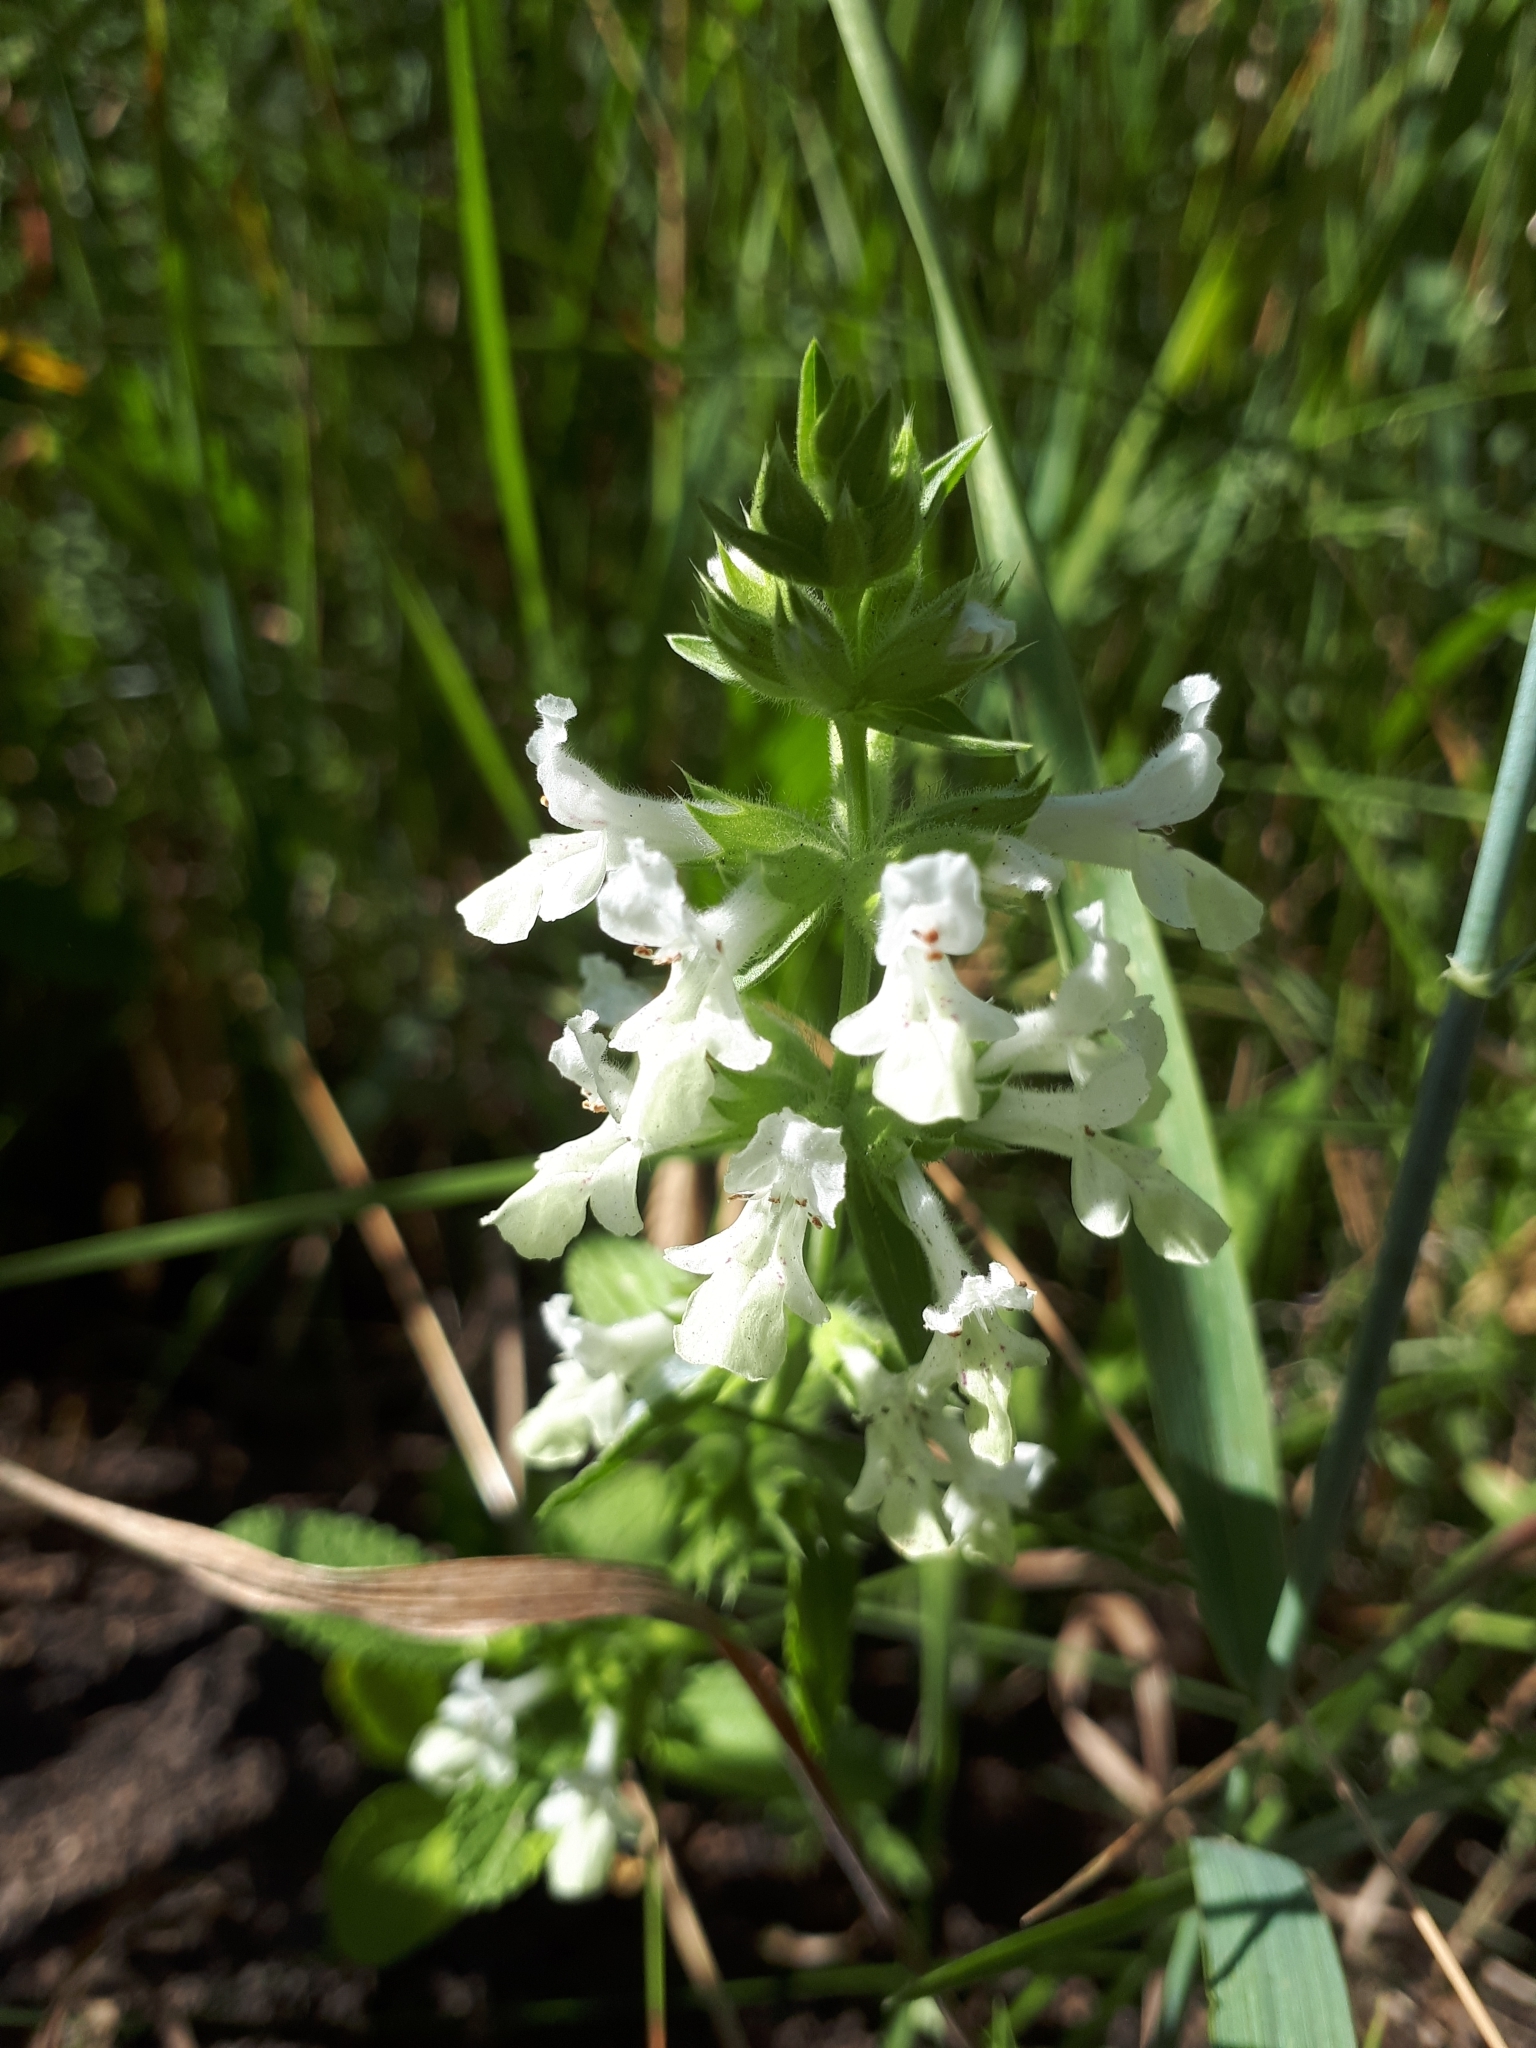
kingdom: Plantae
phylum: Tracheophyta
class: Magnoliopsida
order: Lamiales
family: Lamiaceae
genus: Stachys
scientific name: Stachys annua
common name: Annual yellow-woundwort
